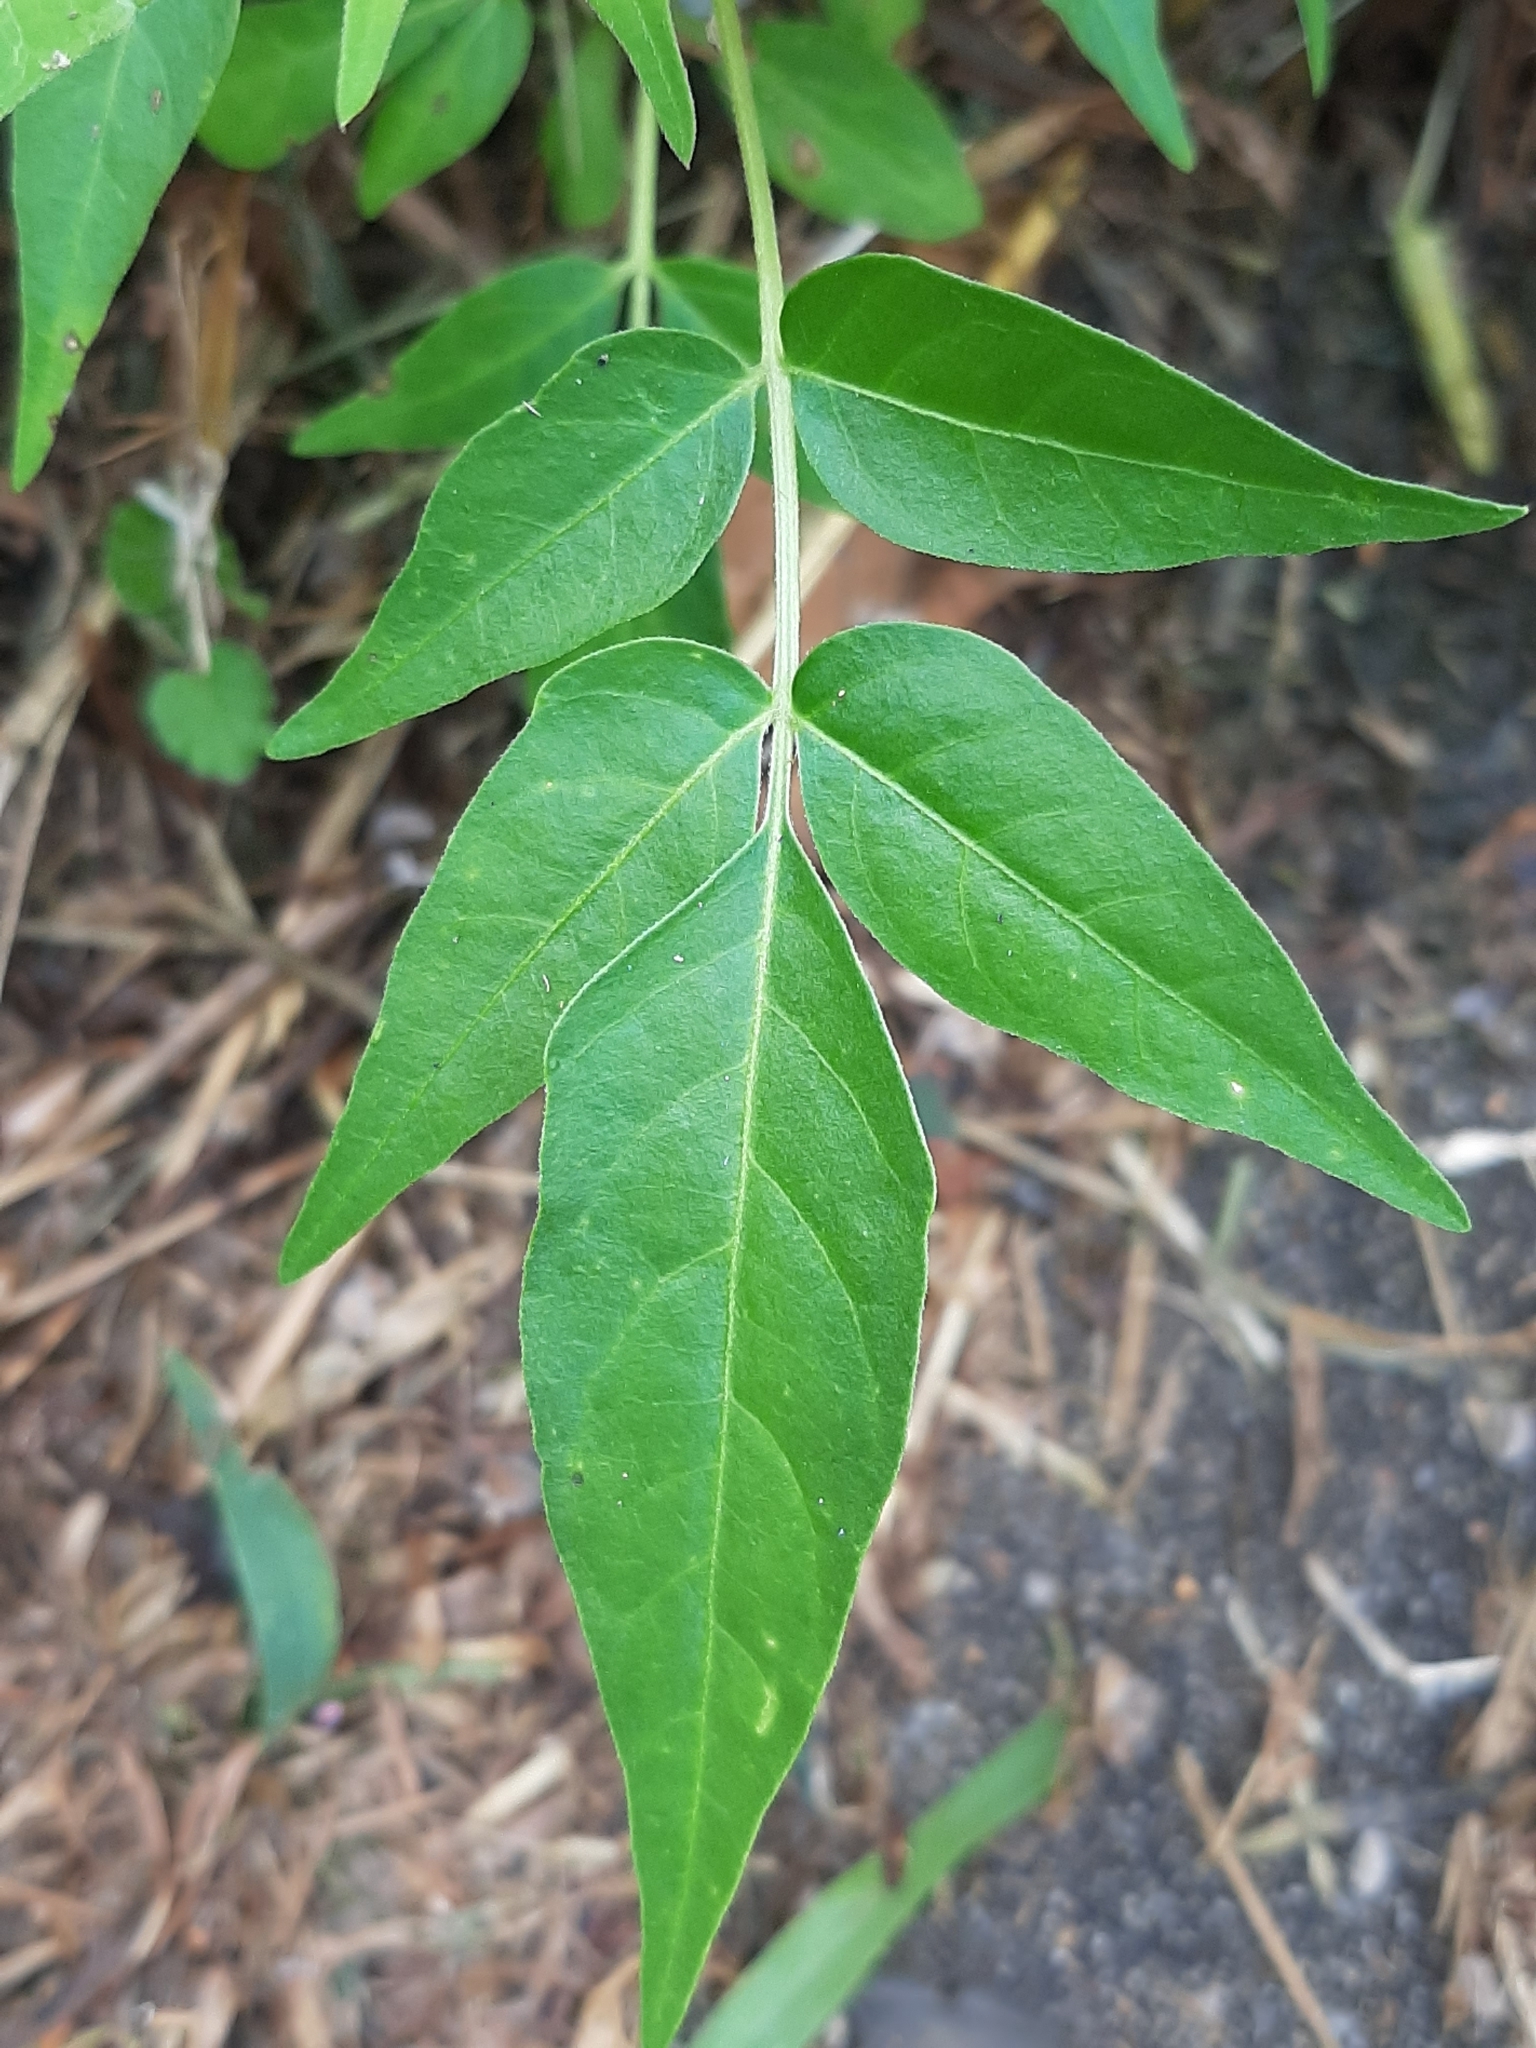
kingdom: Plantae
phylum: Tracheophyta
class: Magnoliopsida
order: Sapindales
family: Simaroubaceae
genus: Ailanthus
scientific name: Ailanthus altissima
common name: Tree-of-heaven
